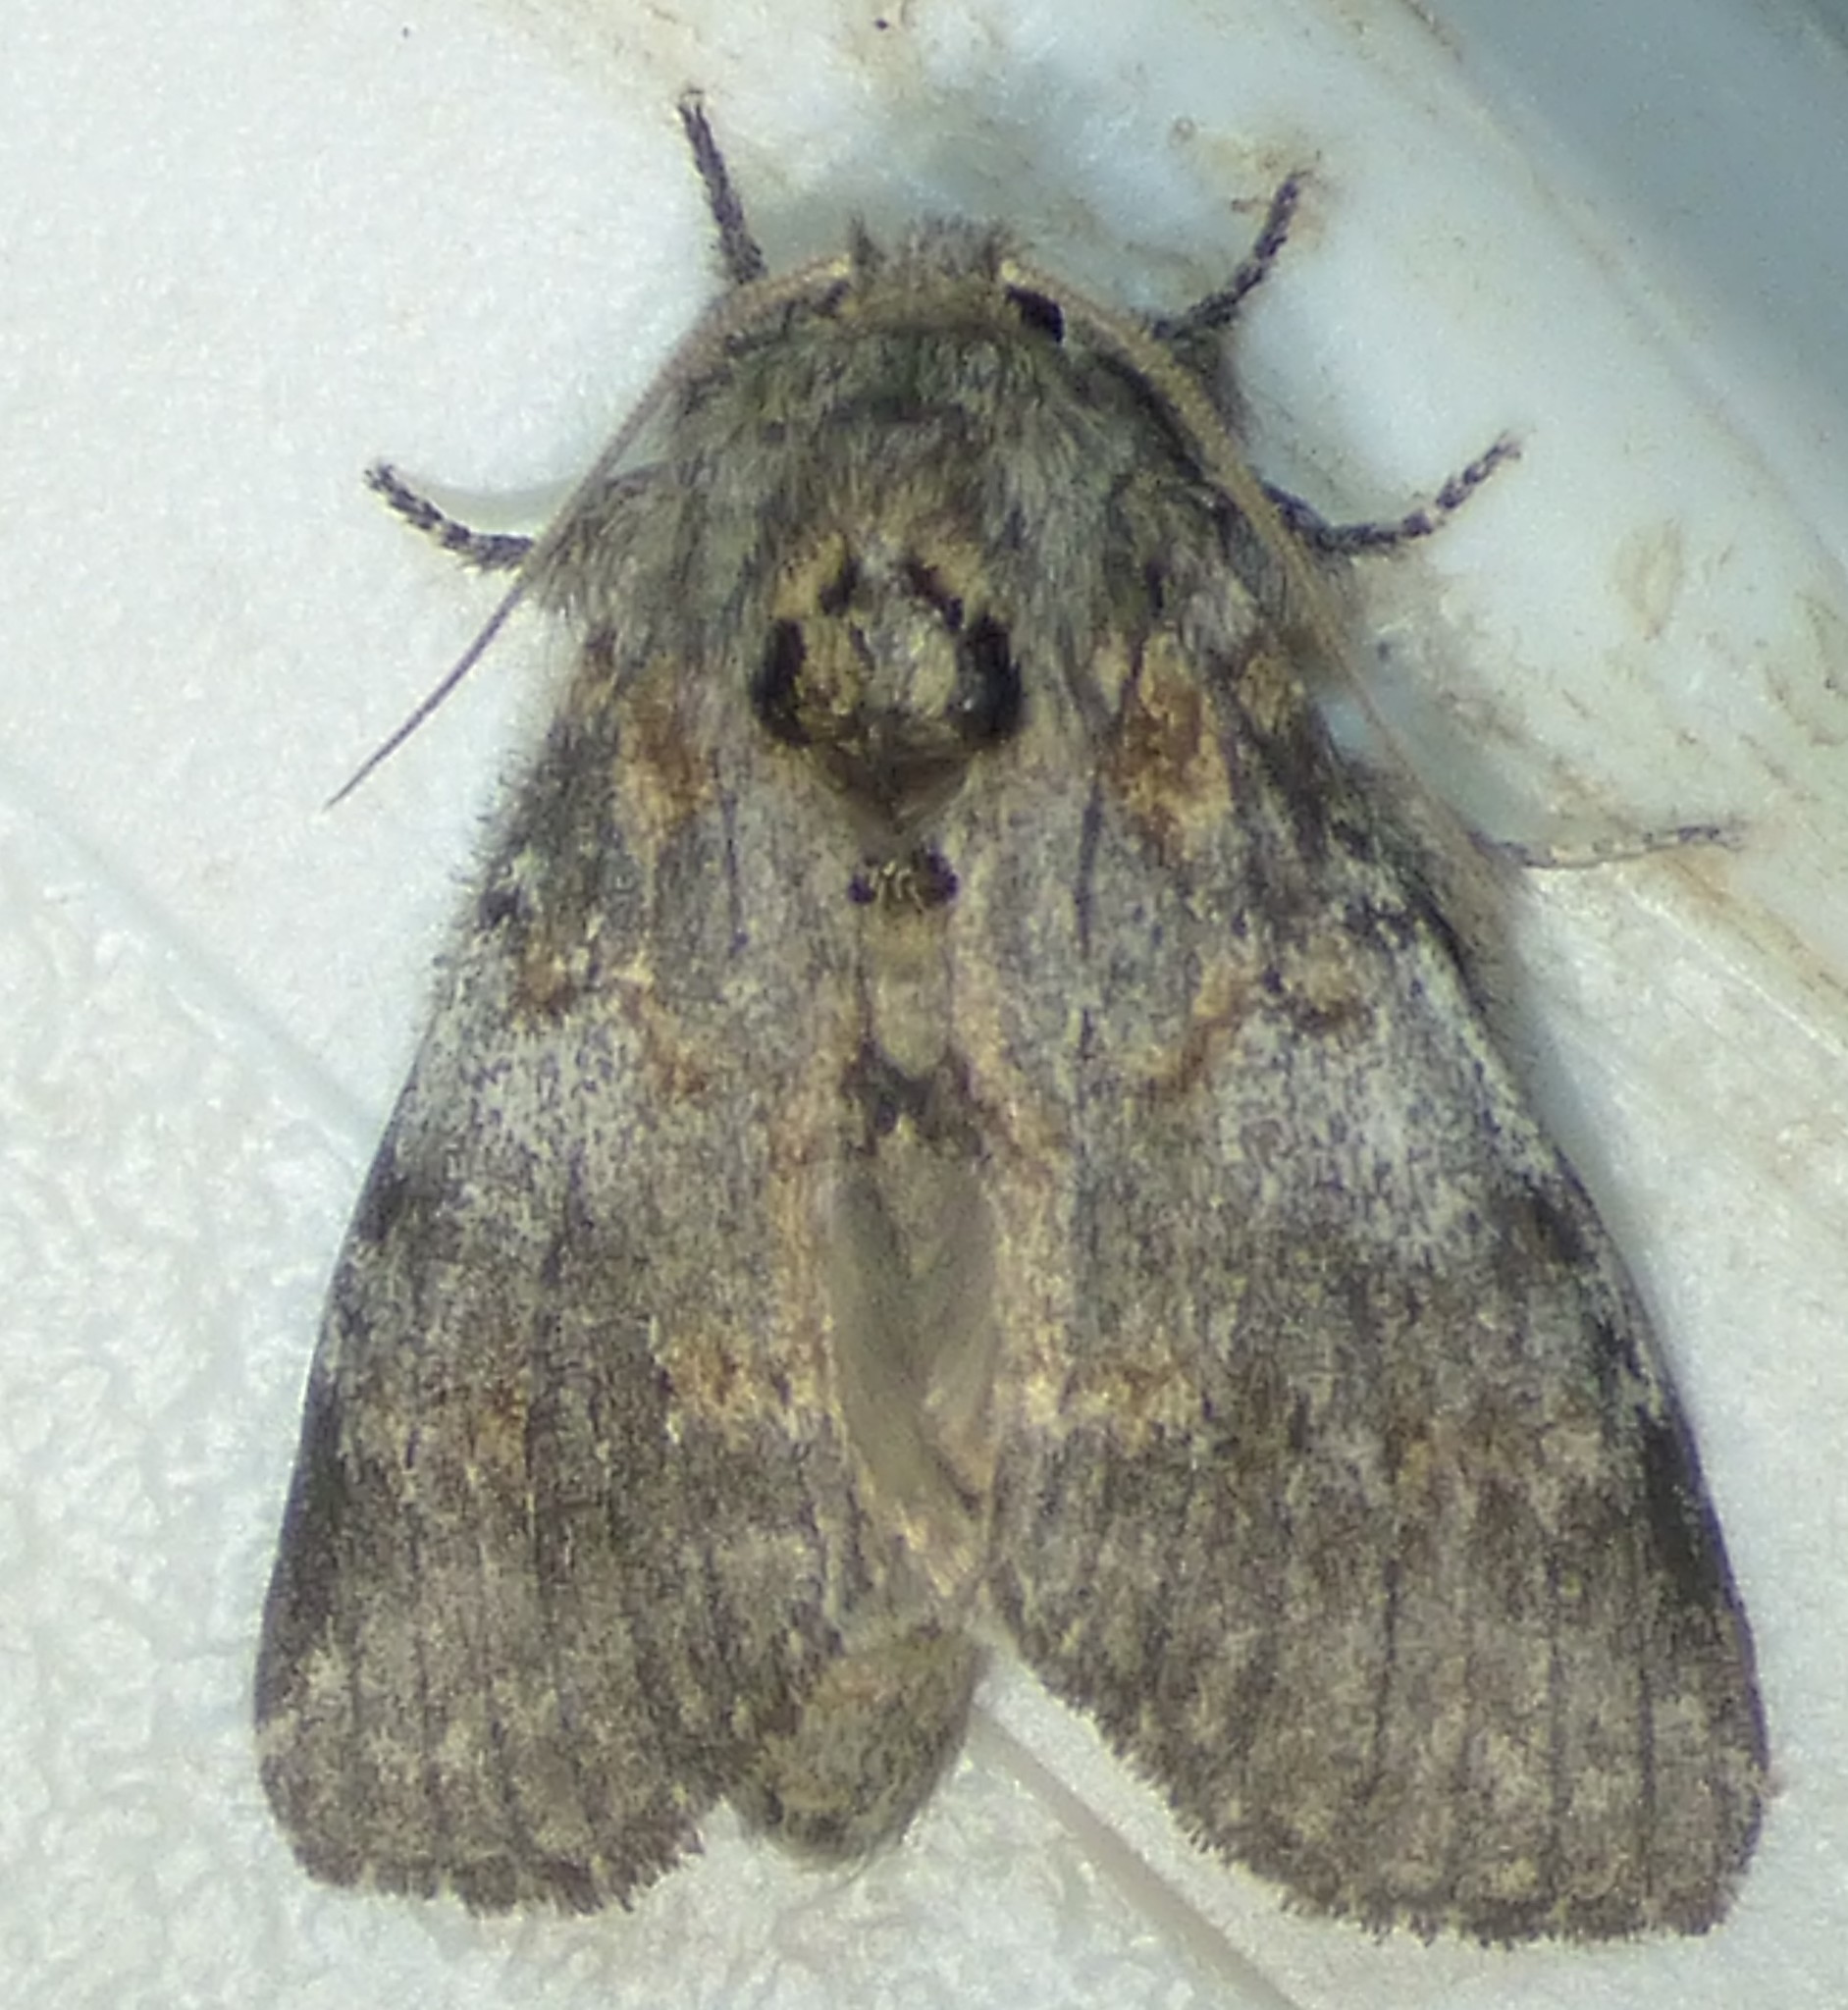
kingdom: Animalia
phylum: Arthropoda
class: Insecta
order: Lepidoptera
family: Notodontidae
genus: Peridea
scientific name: Peridea angulosa
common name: Angulose prominent
